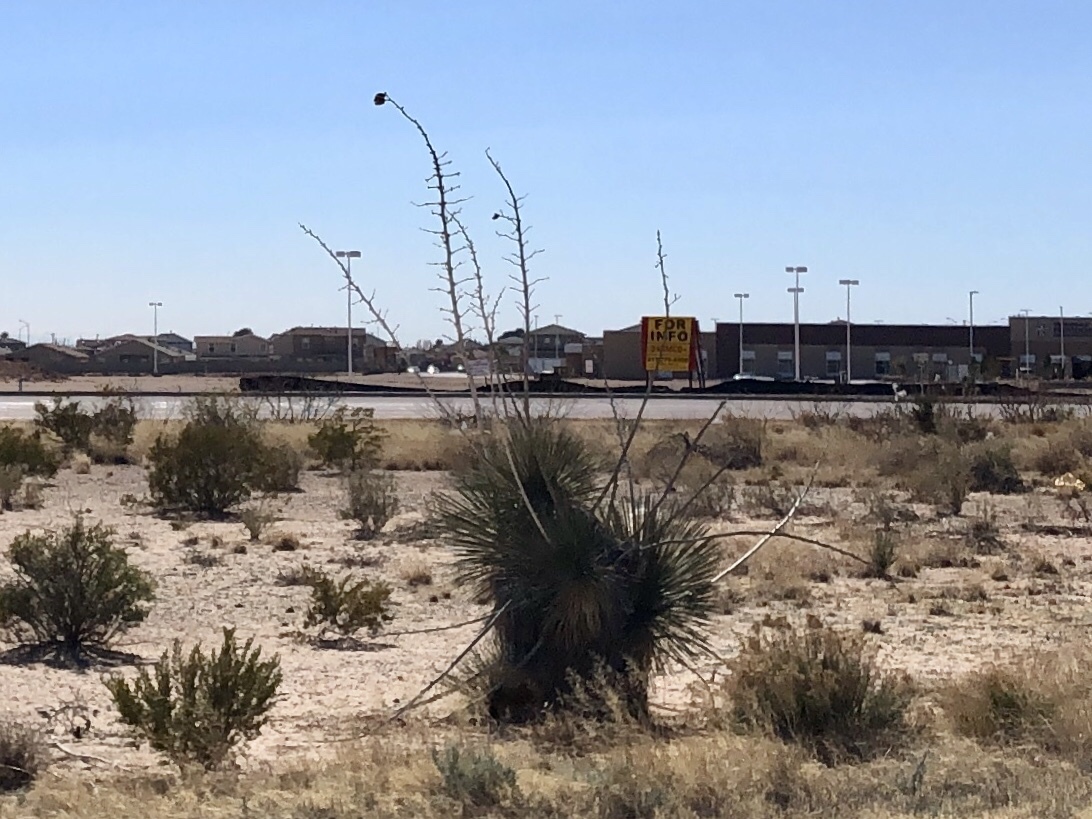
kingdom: Plantae
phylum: Tracheophyta
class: Liliopsida
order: Asparagales
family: Asparagaceae
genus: Yucca
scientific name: Yucca elata
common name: Palmella
